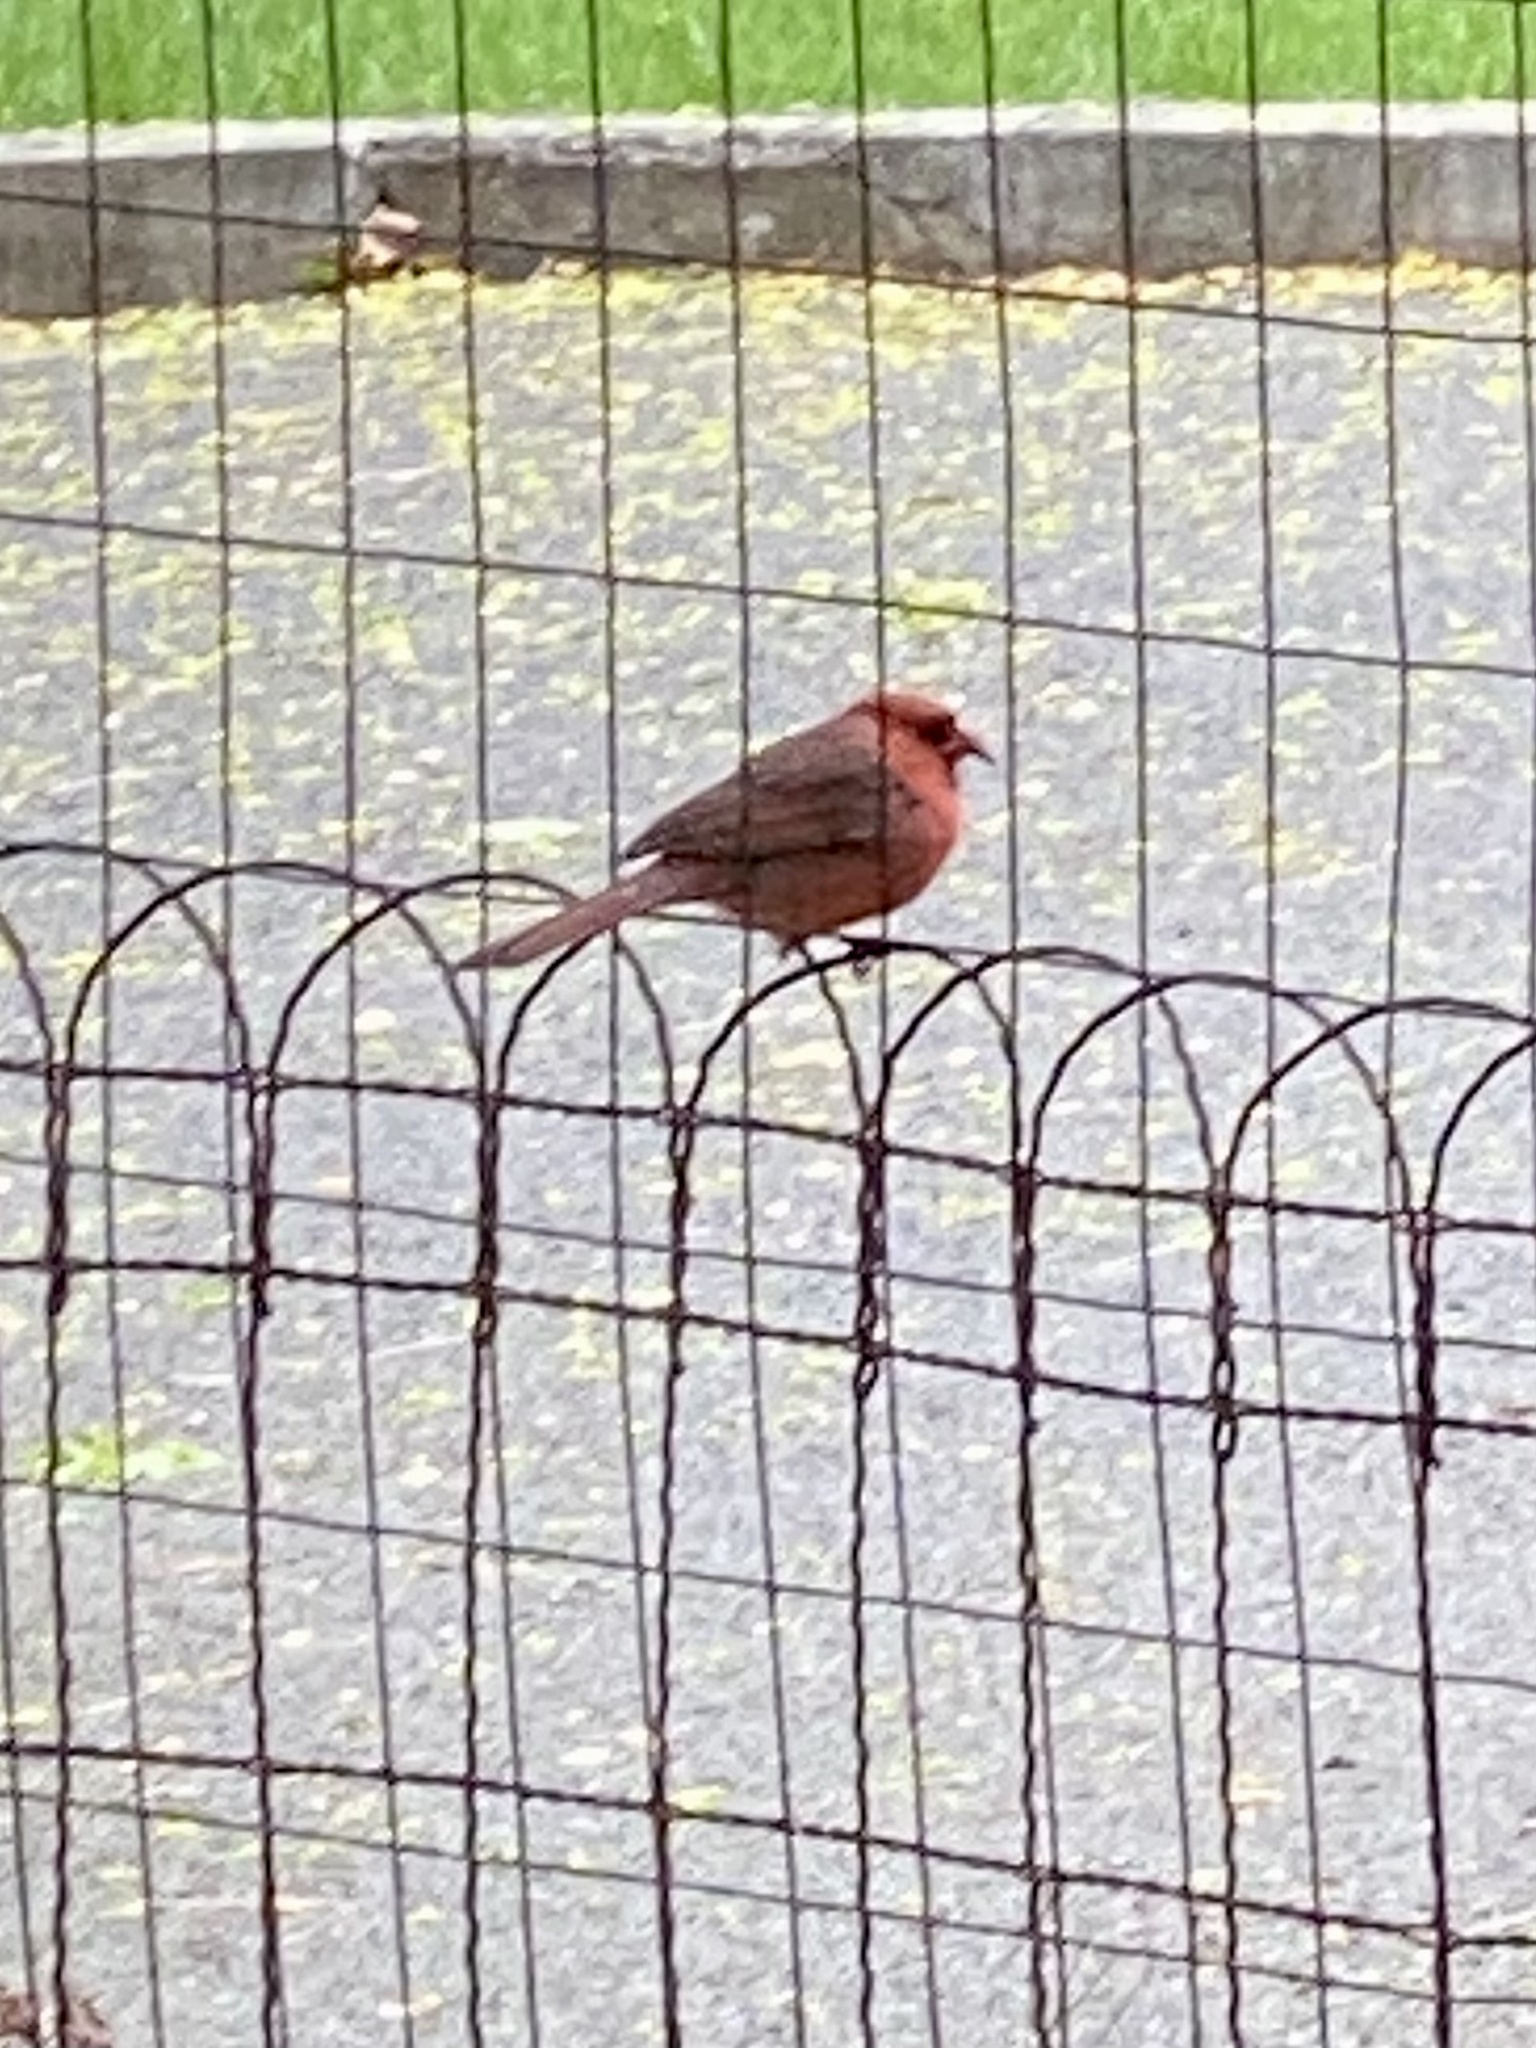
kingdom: Animalia
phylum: Chordata
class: Aves
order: Passeriformes
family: Cardinalidae
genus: Cardinalis
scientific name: Cardinalis cardinalis
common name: Northern cardinal
